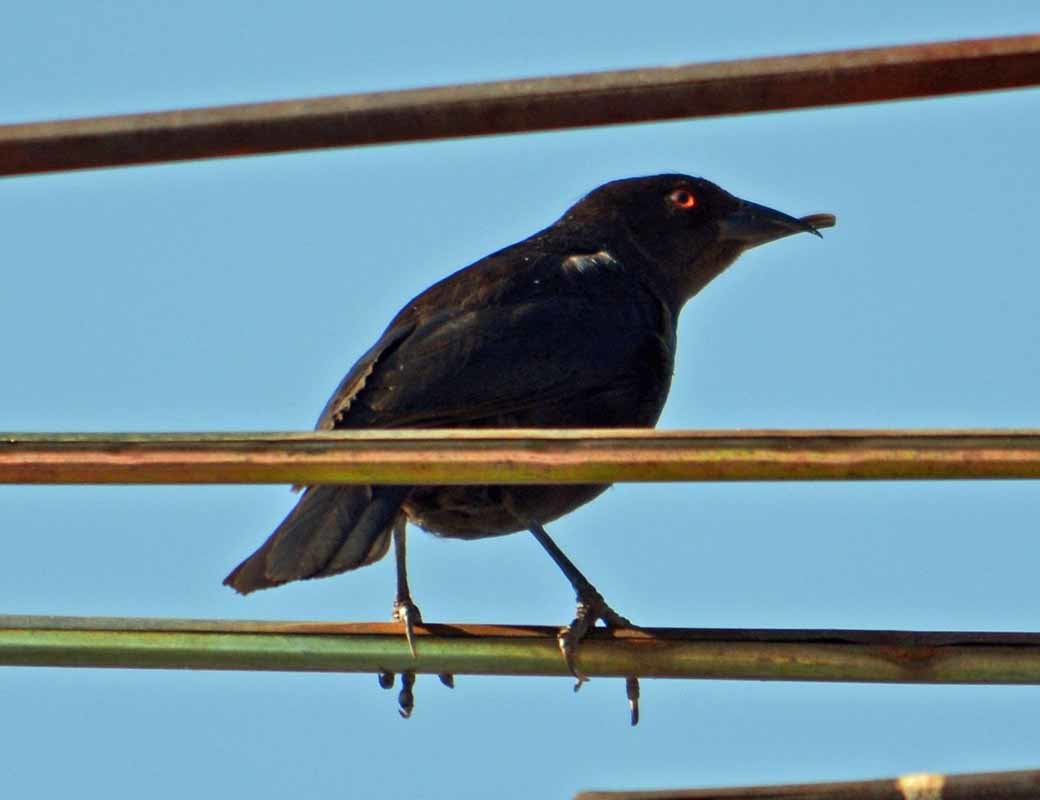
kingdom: Animalia
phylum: Chordata
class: Aves
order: Passeriformes
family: Icteridae
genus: Molothrus
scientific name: Molothrus aeneus
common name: Bronzed cowbird
